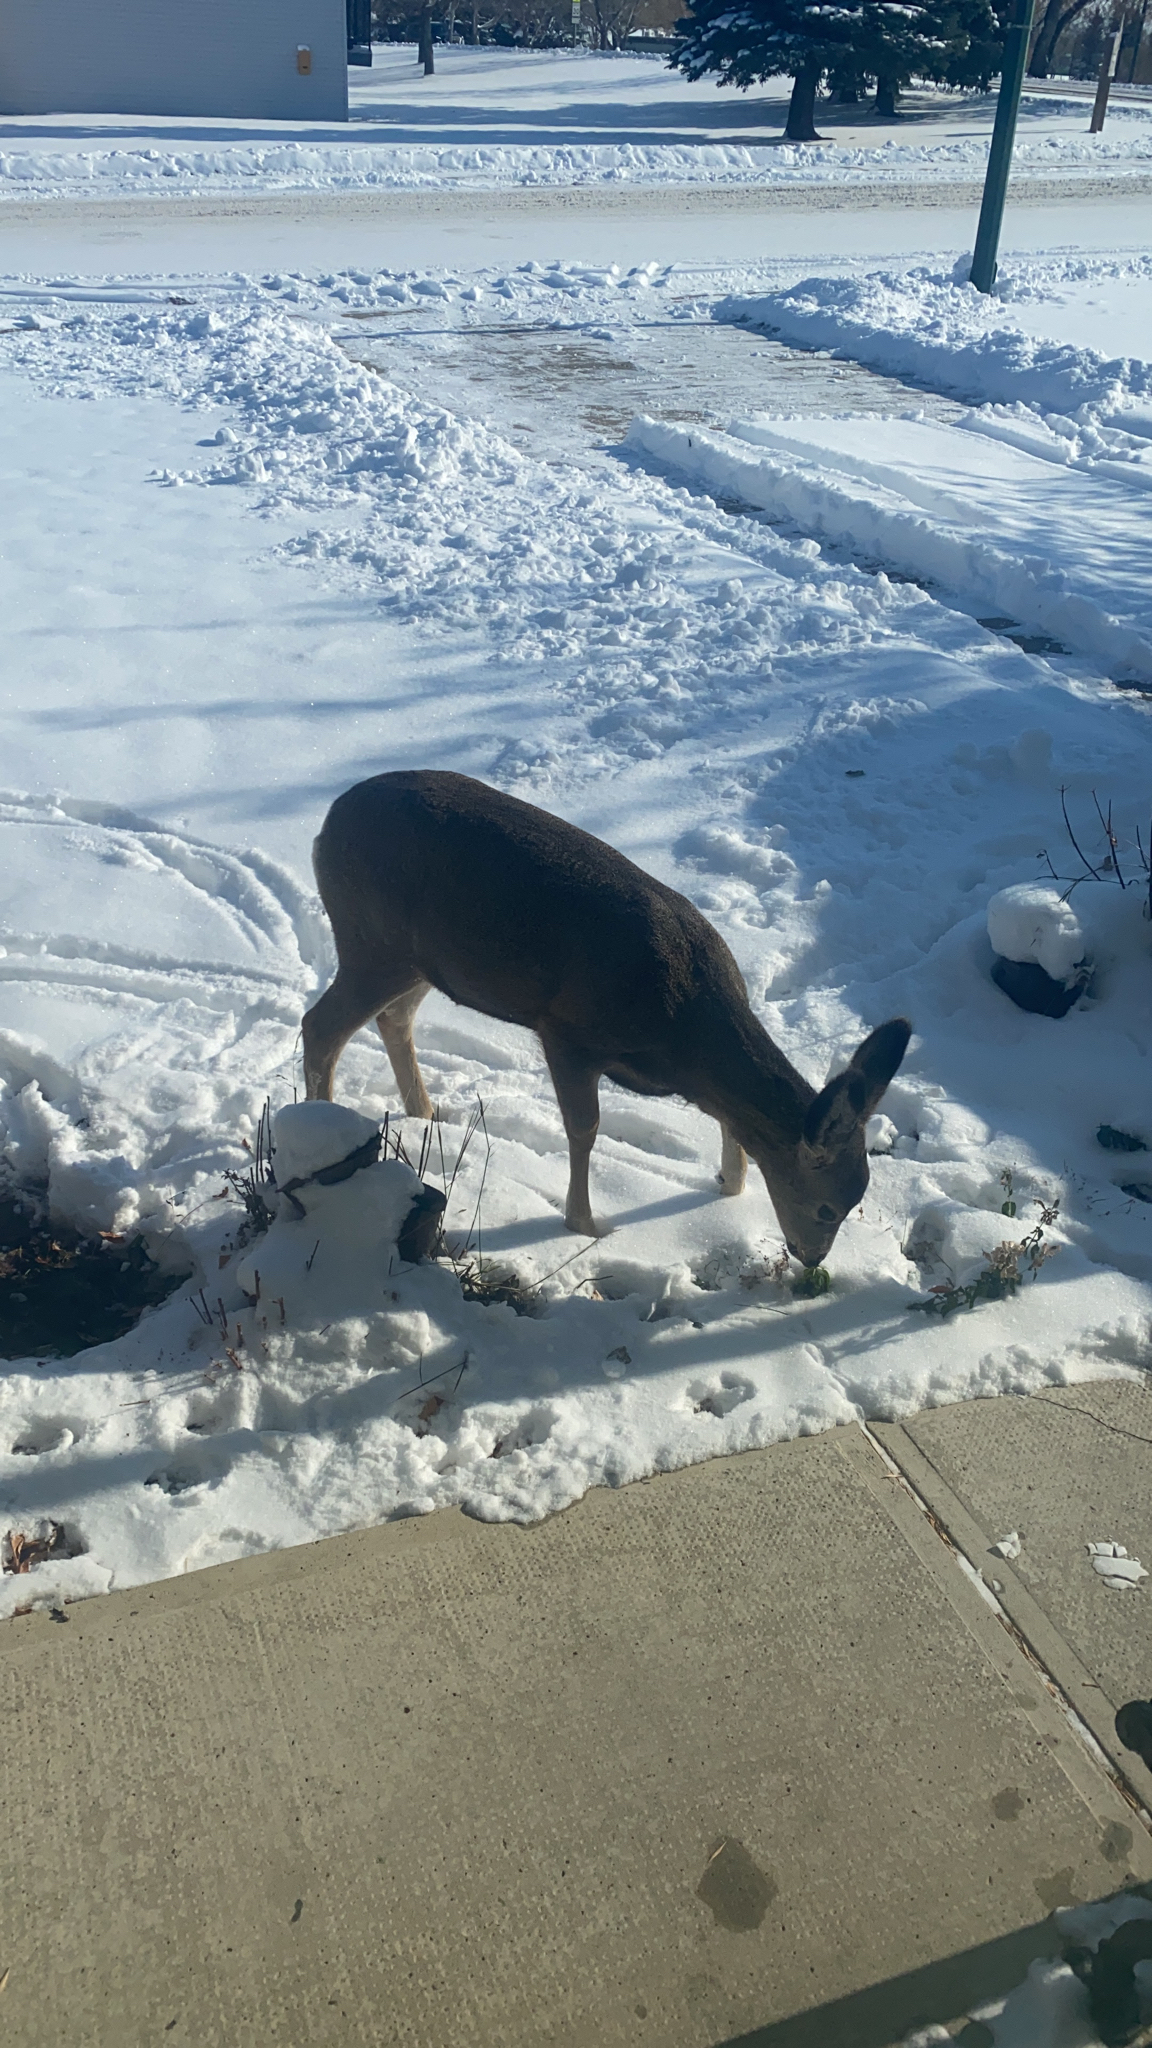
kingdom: Animalia
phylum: Chordata
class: Mammalia
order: Artiodactyla
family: Cervidae
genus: Odocoileus
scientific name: Odocoileus hemionus
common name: Mule deer
